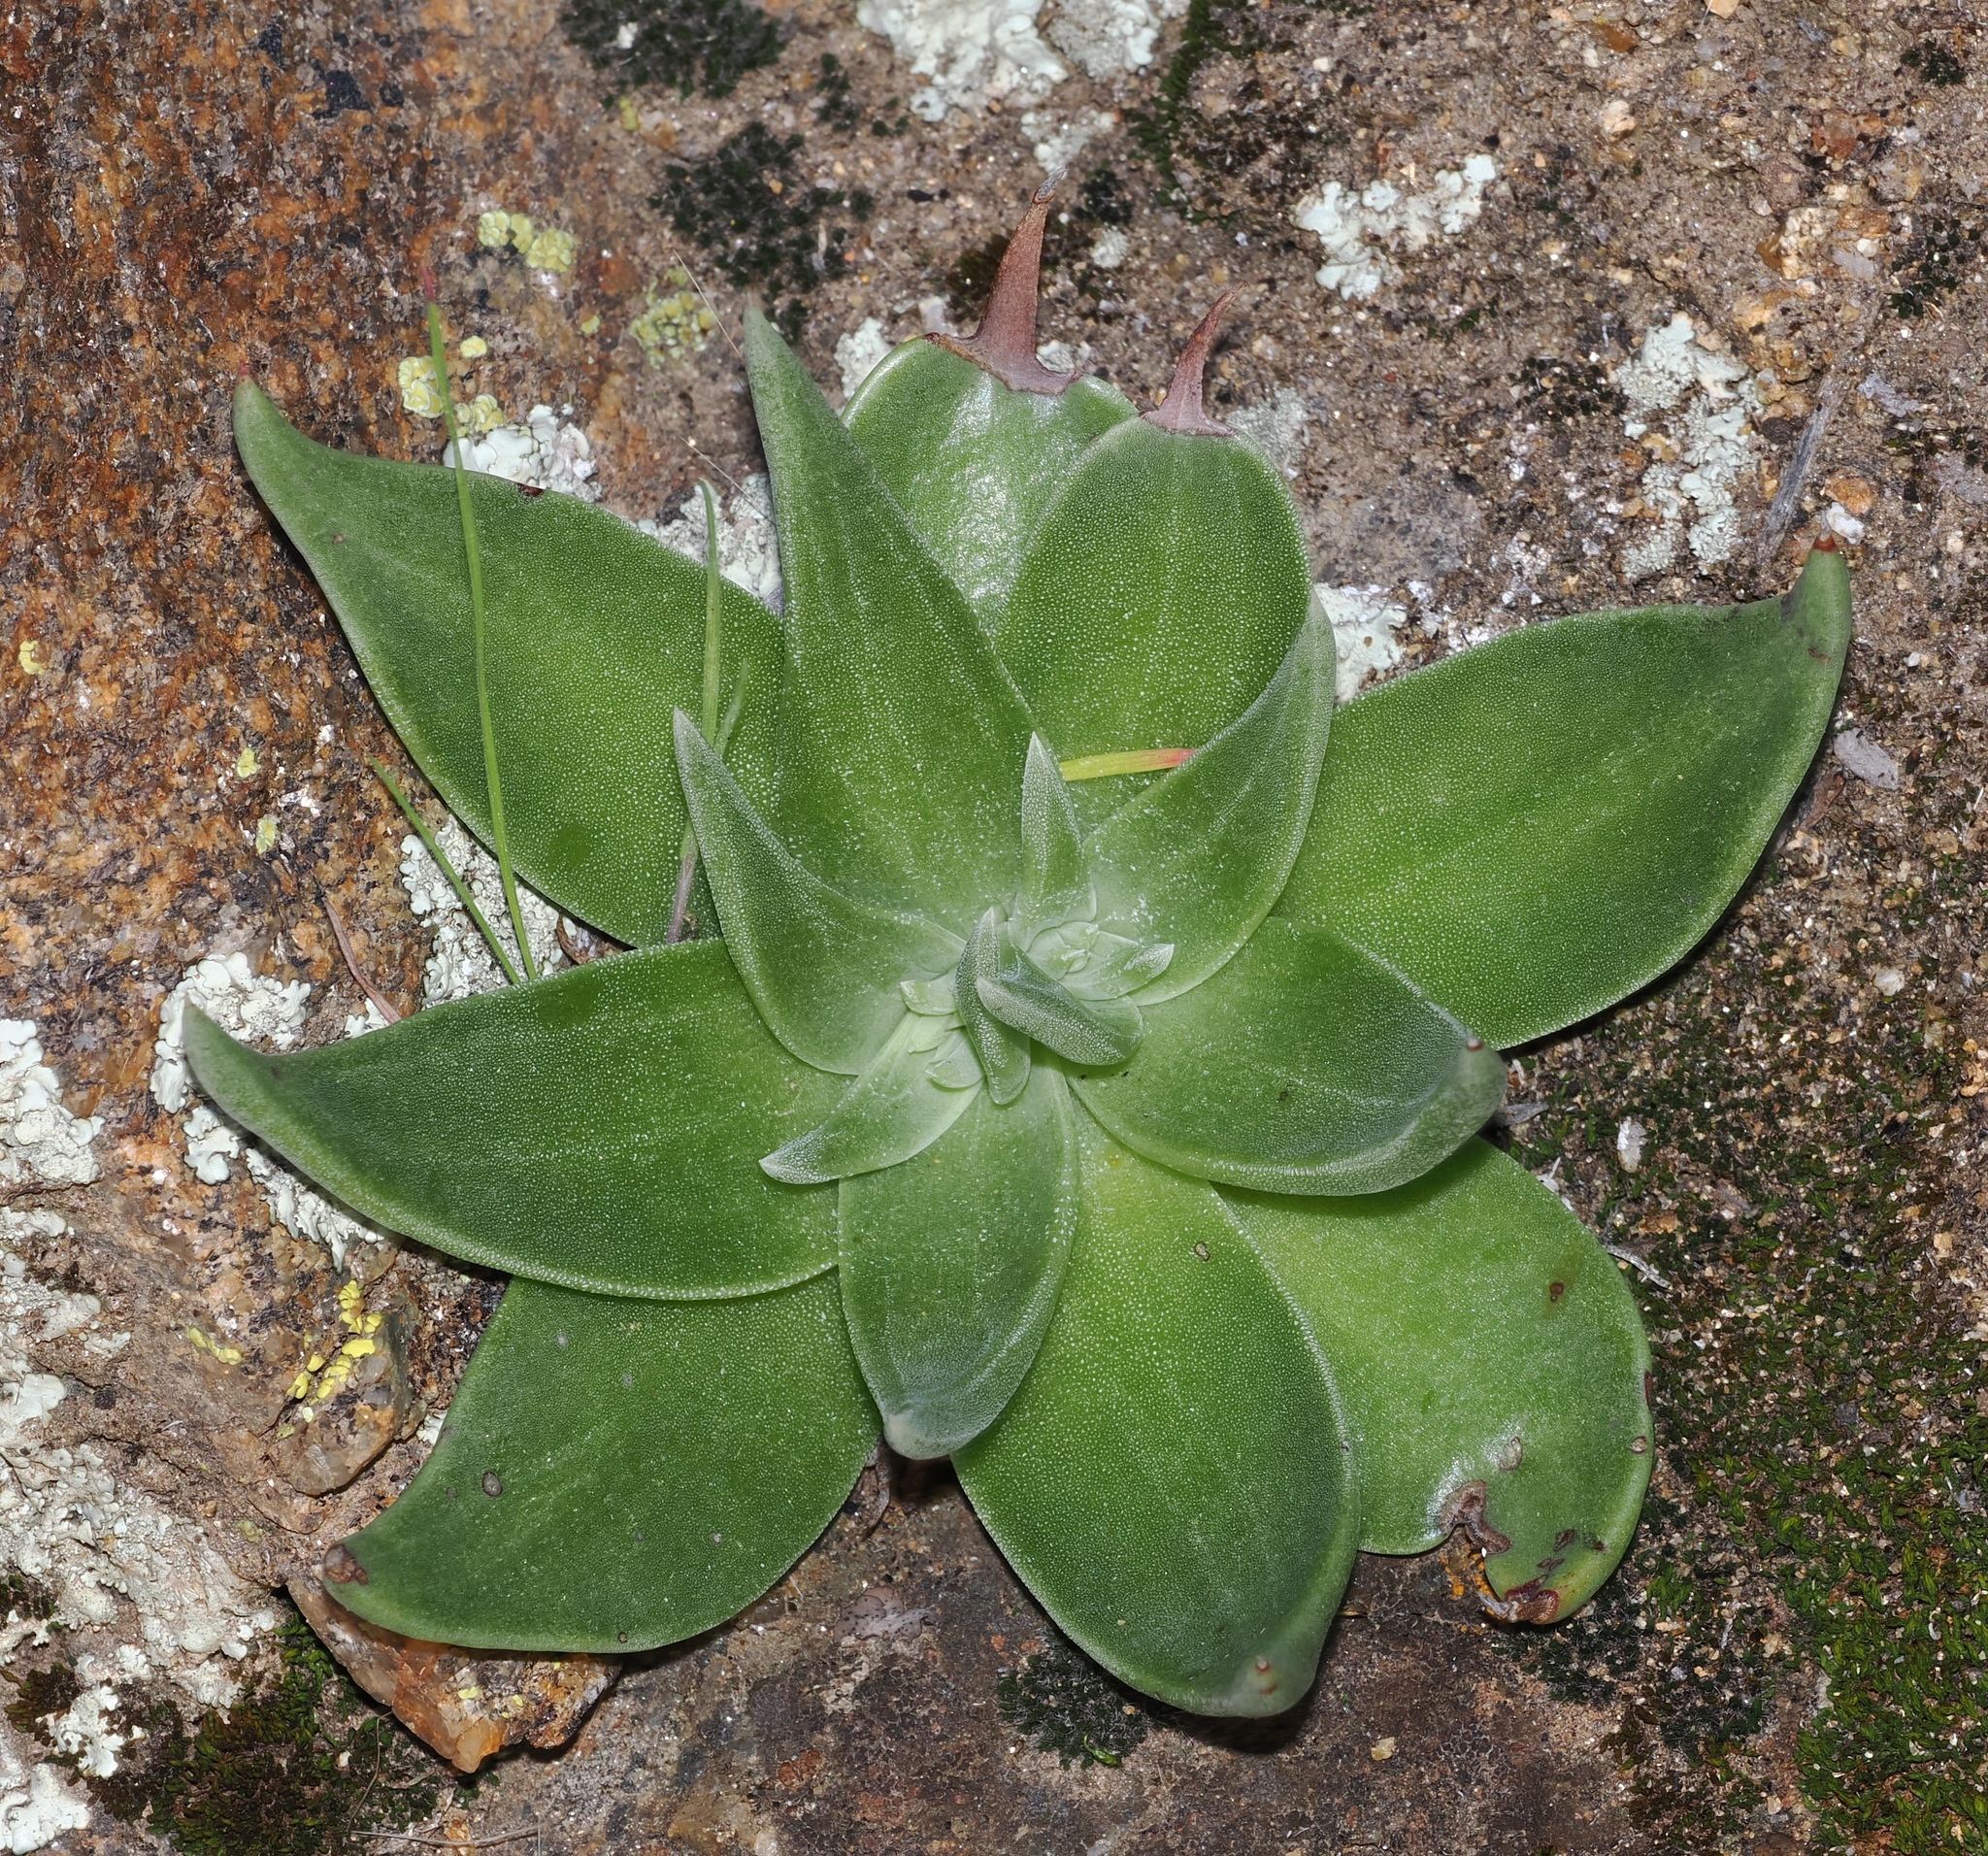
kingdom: Plantae
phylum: Tracheophyta
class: Magnoliopsida
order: Saxifragales
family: Crassulaceae
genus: Dudleya
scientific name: Dudleya saxosa
